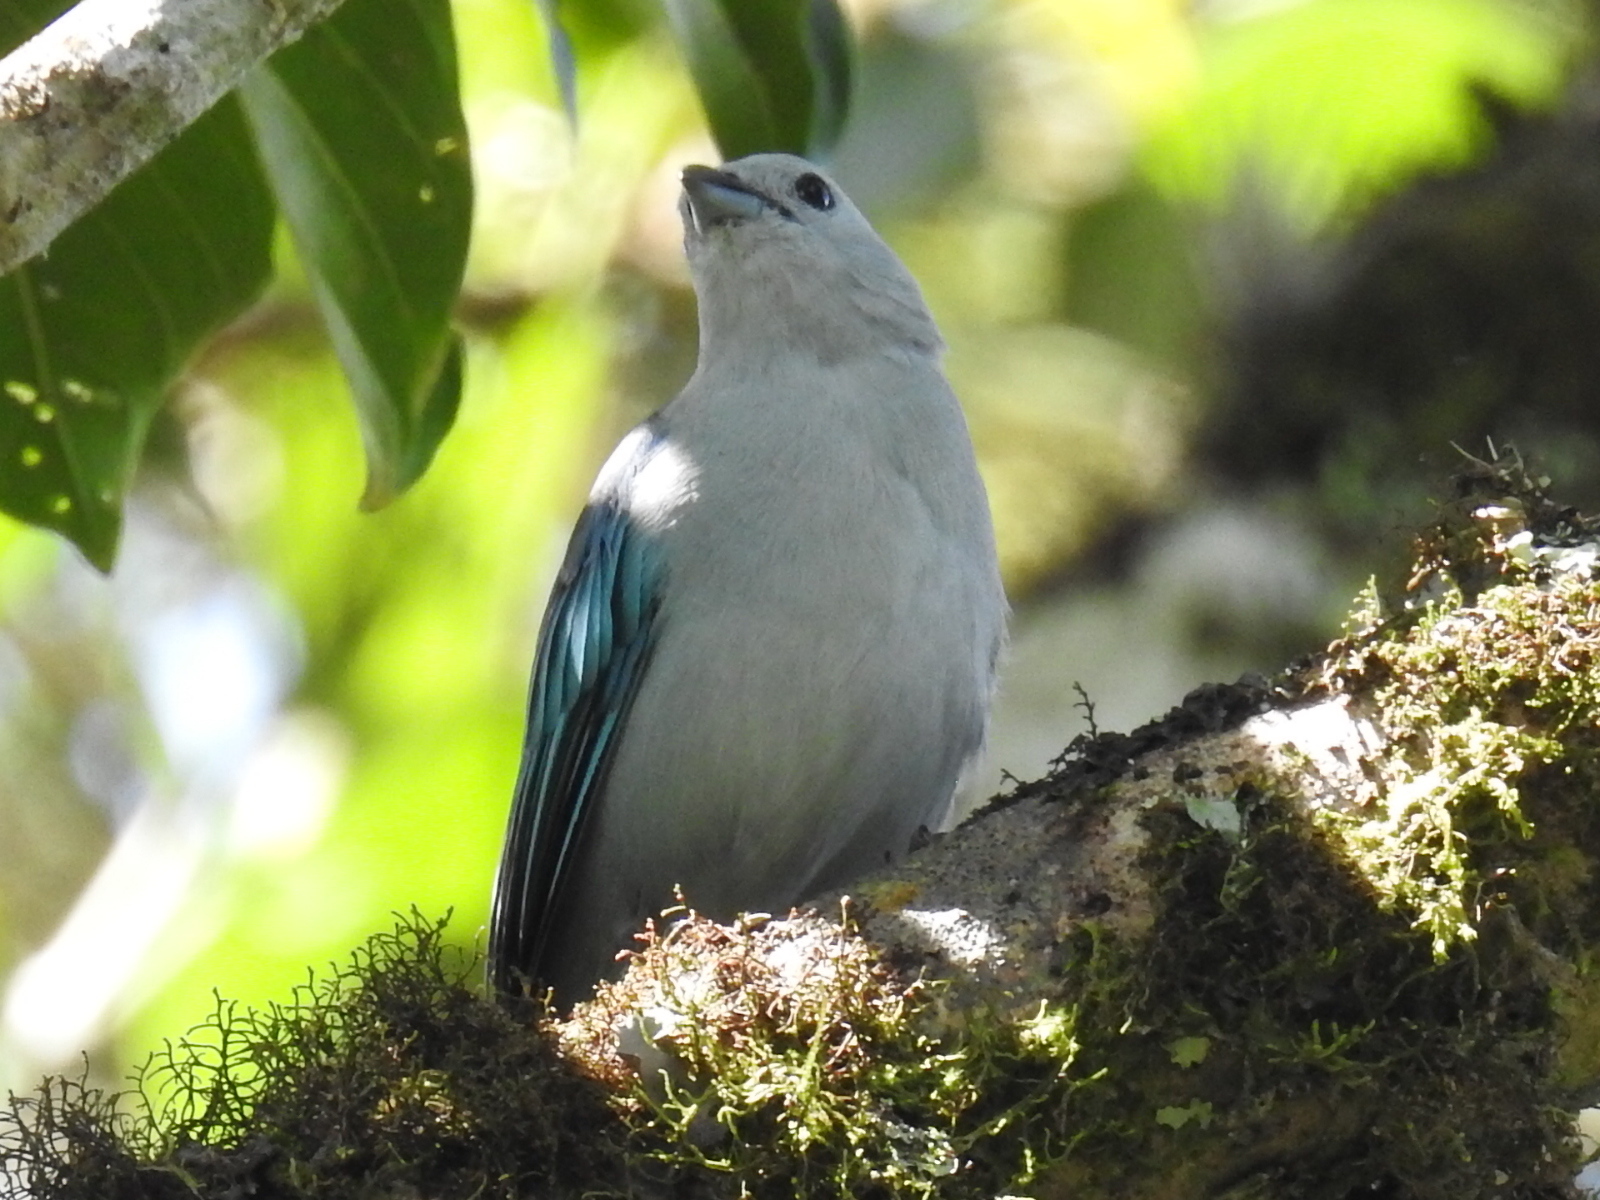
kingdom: Animalia
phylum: Chordata
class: Aves
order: Passeriformes
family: Thraupidae
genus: Thraupis
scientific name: Thraupis episcopus
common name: Blue-grey tanager
